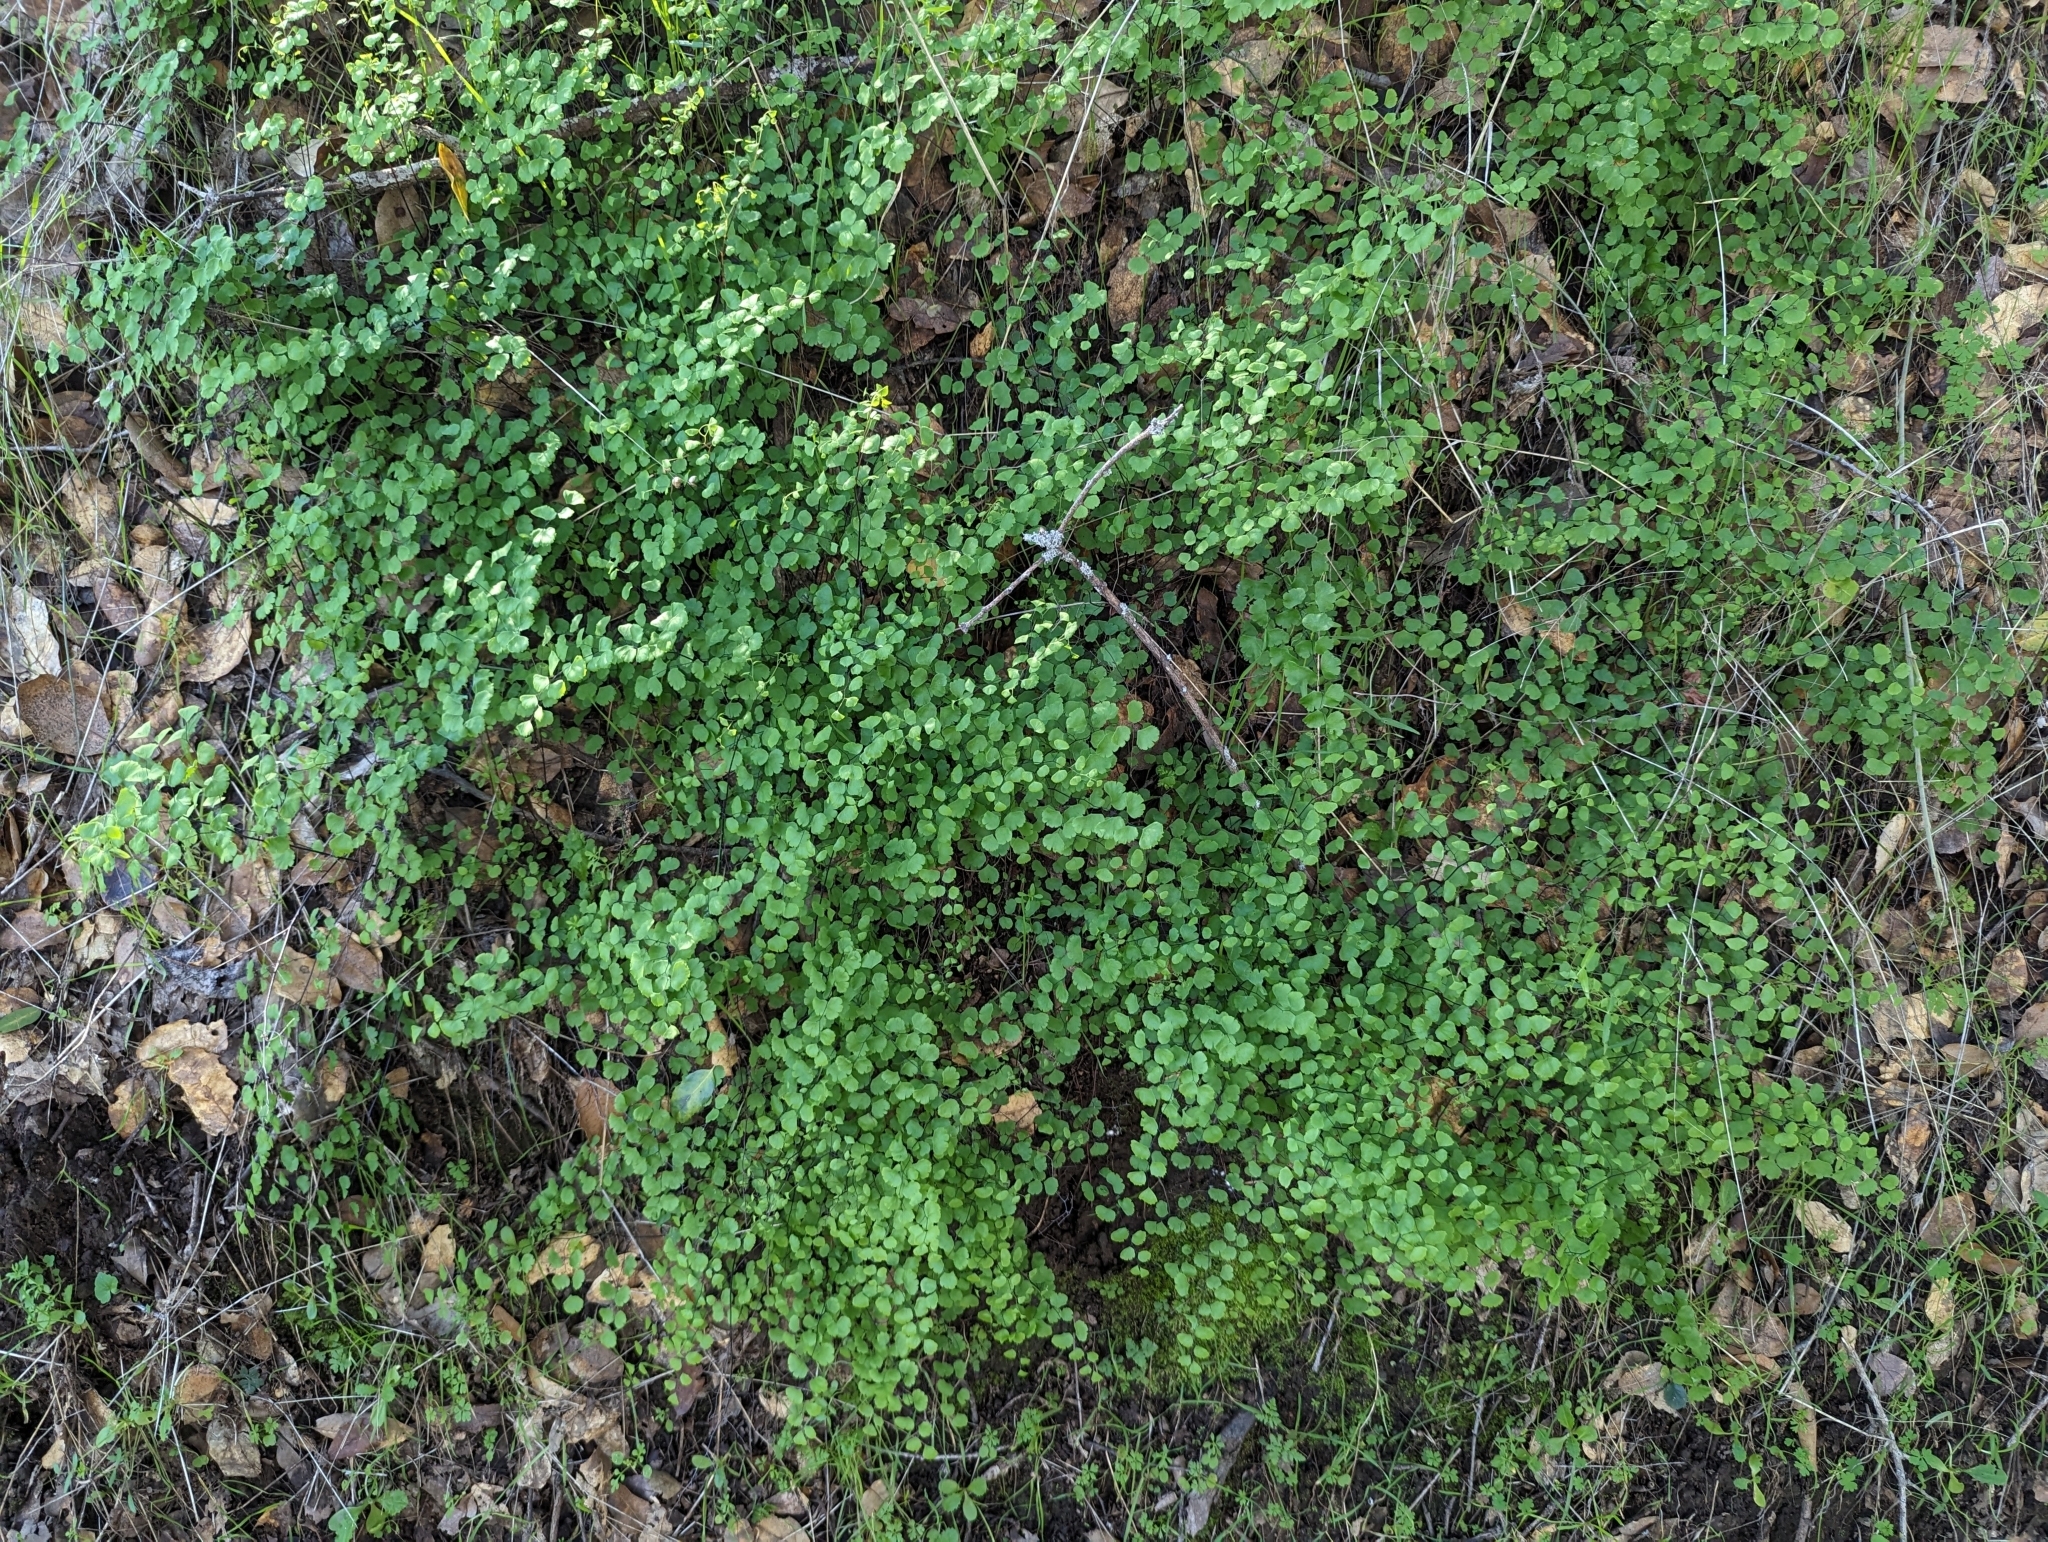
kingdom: Plantae
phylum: Tracheophyta
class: Polypodiopsida
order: Polypodiales
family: Pteridaceae
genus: Adiantum
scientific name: Adiantum jordanii
